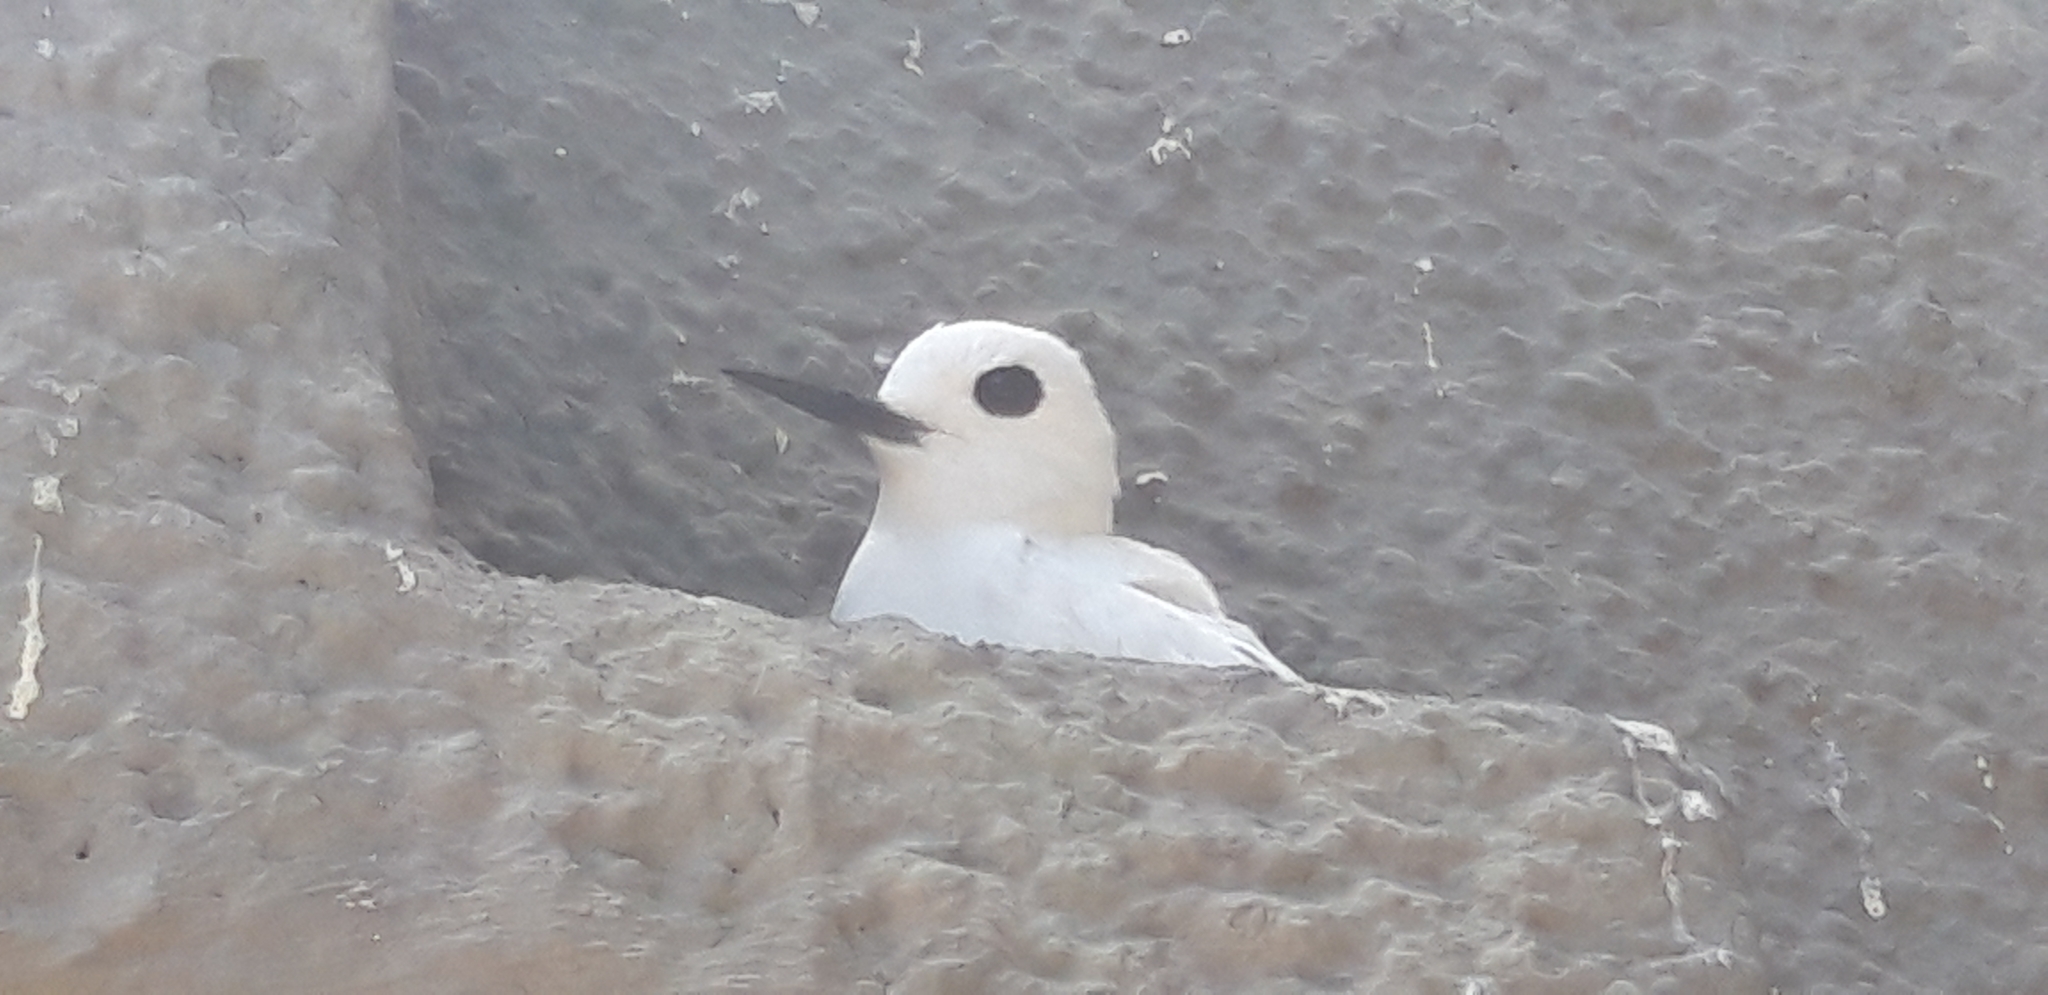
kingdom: Animalia
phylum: Chordata
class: Aves
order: Charadriiformes
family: Laridae
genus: Gygis
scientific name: Gygis alba
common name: White tern
